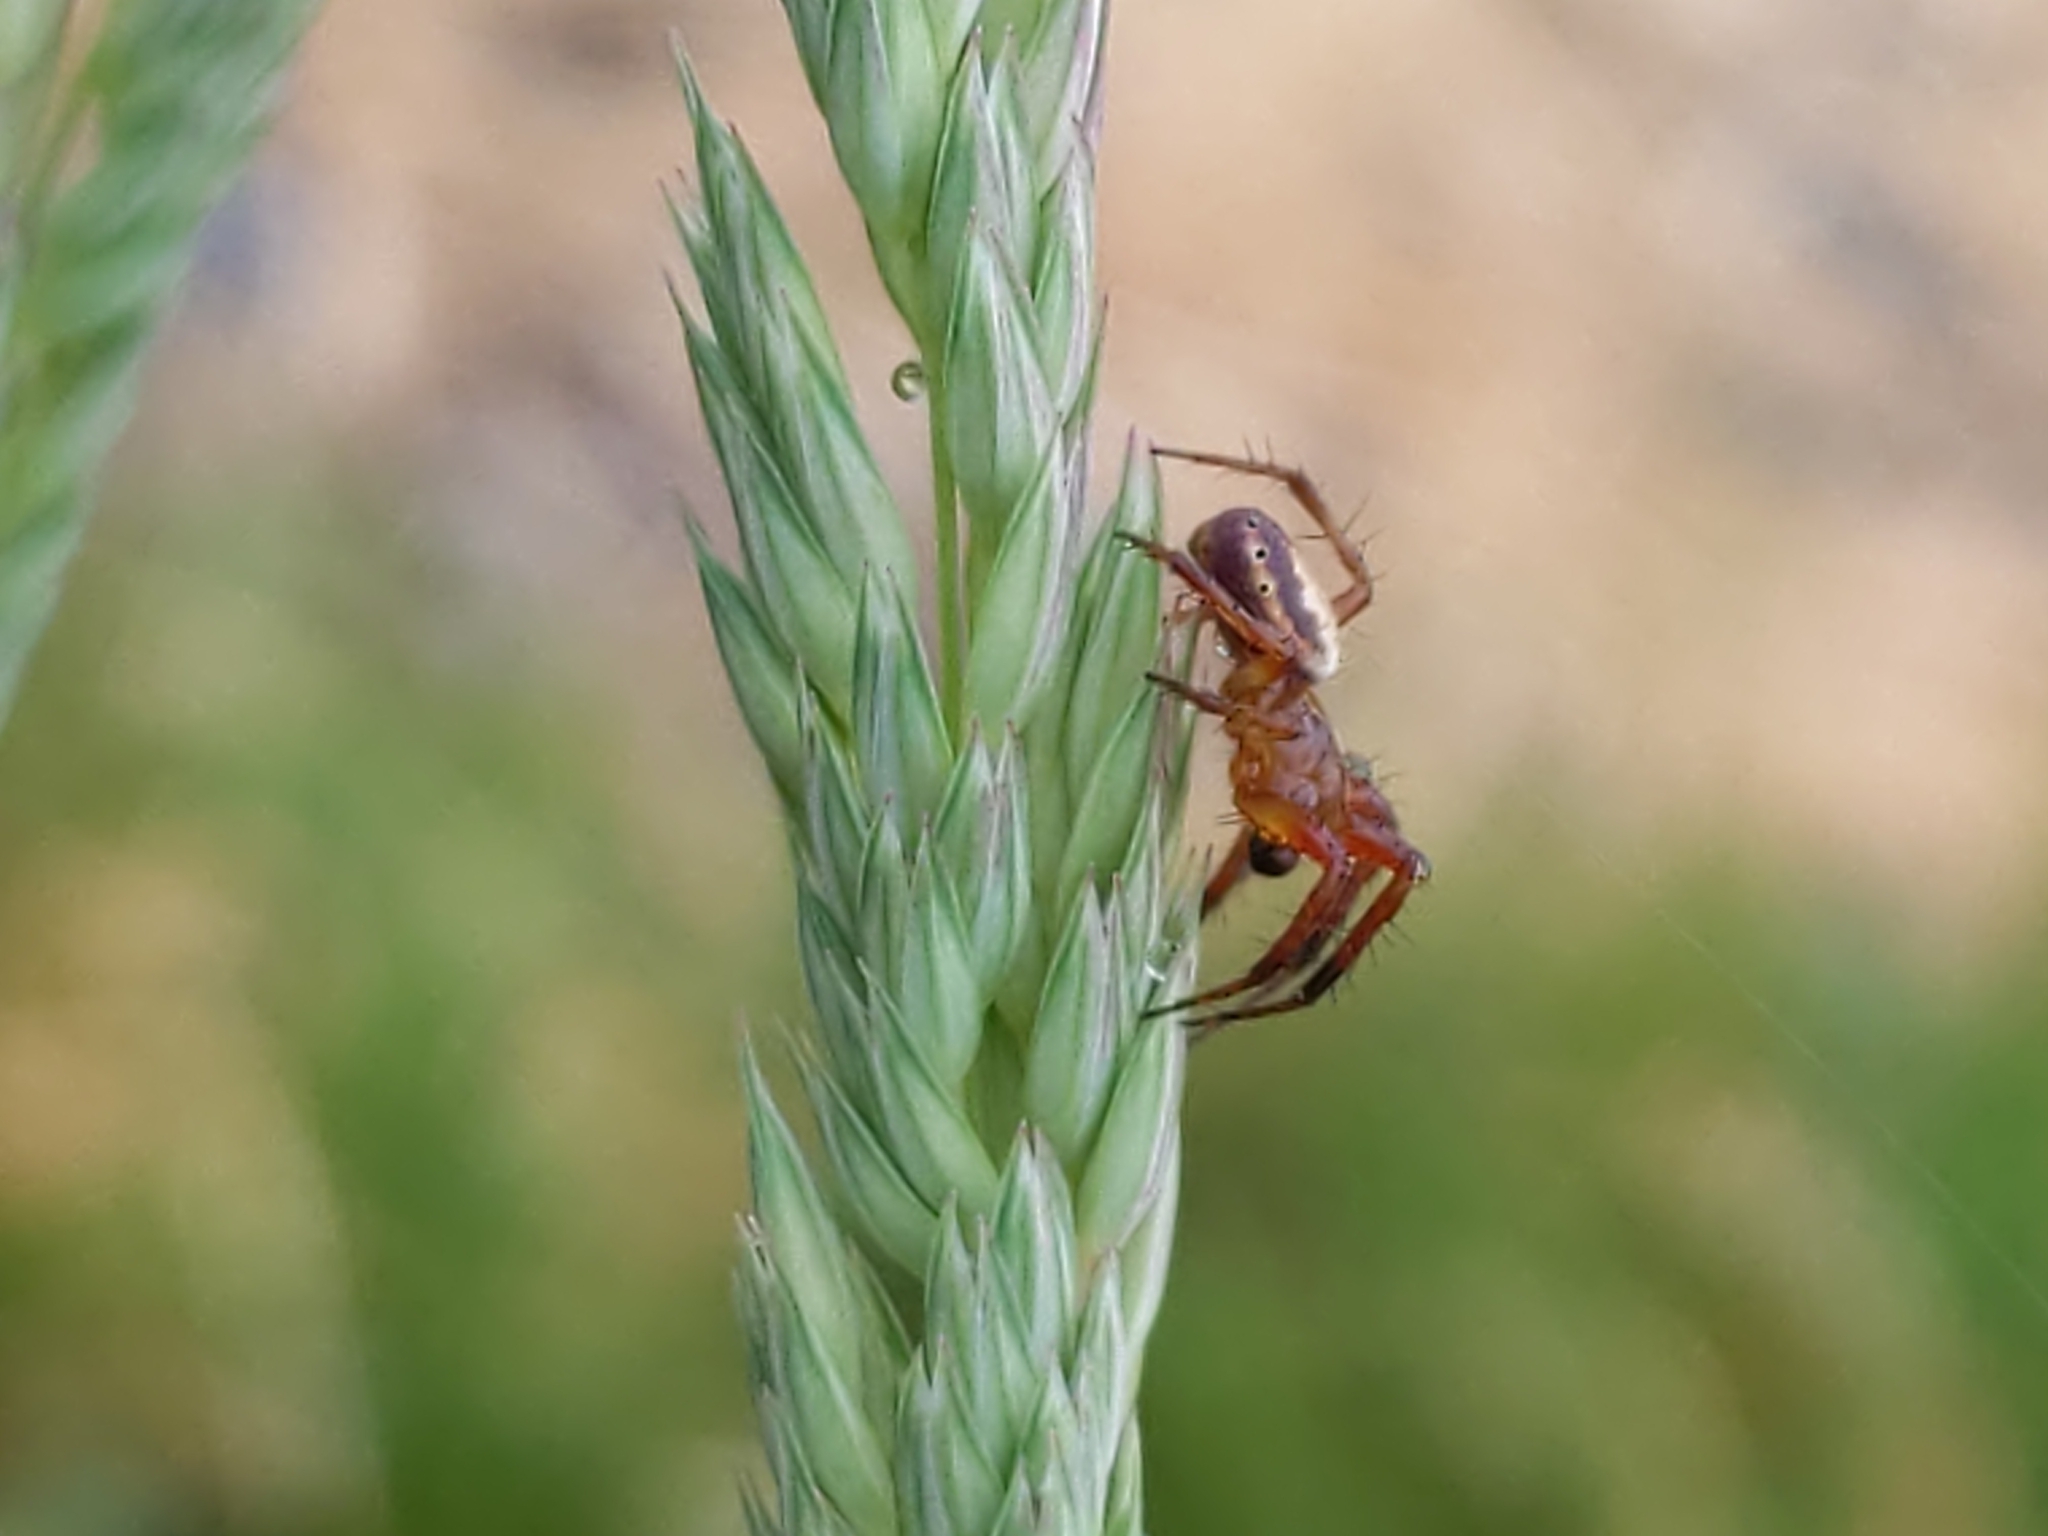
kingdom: Animalia
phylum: Arthropoda
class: Arachnida
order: Araneae
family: Araneidae
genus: Araniella
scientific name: Araniella displicata
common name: Sixspotted orb weaver
